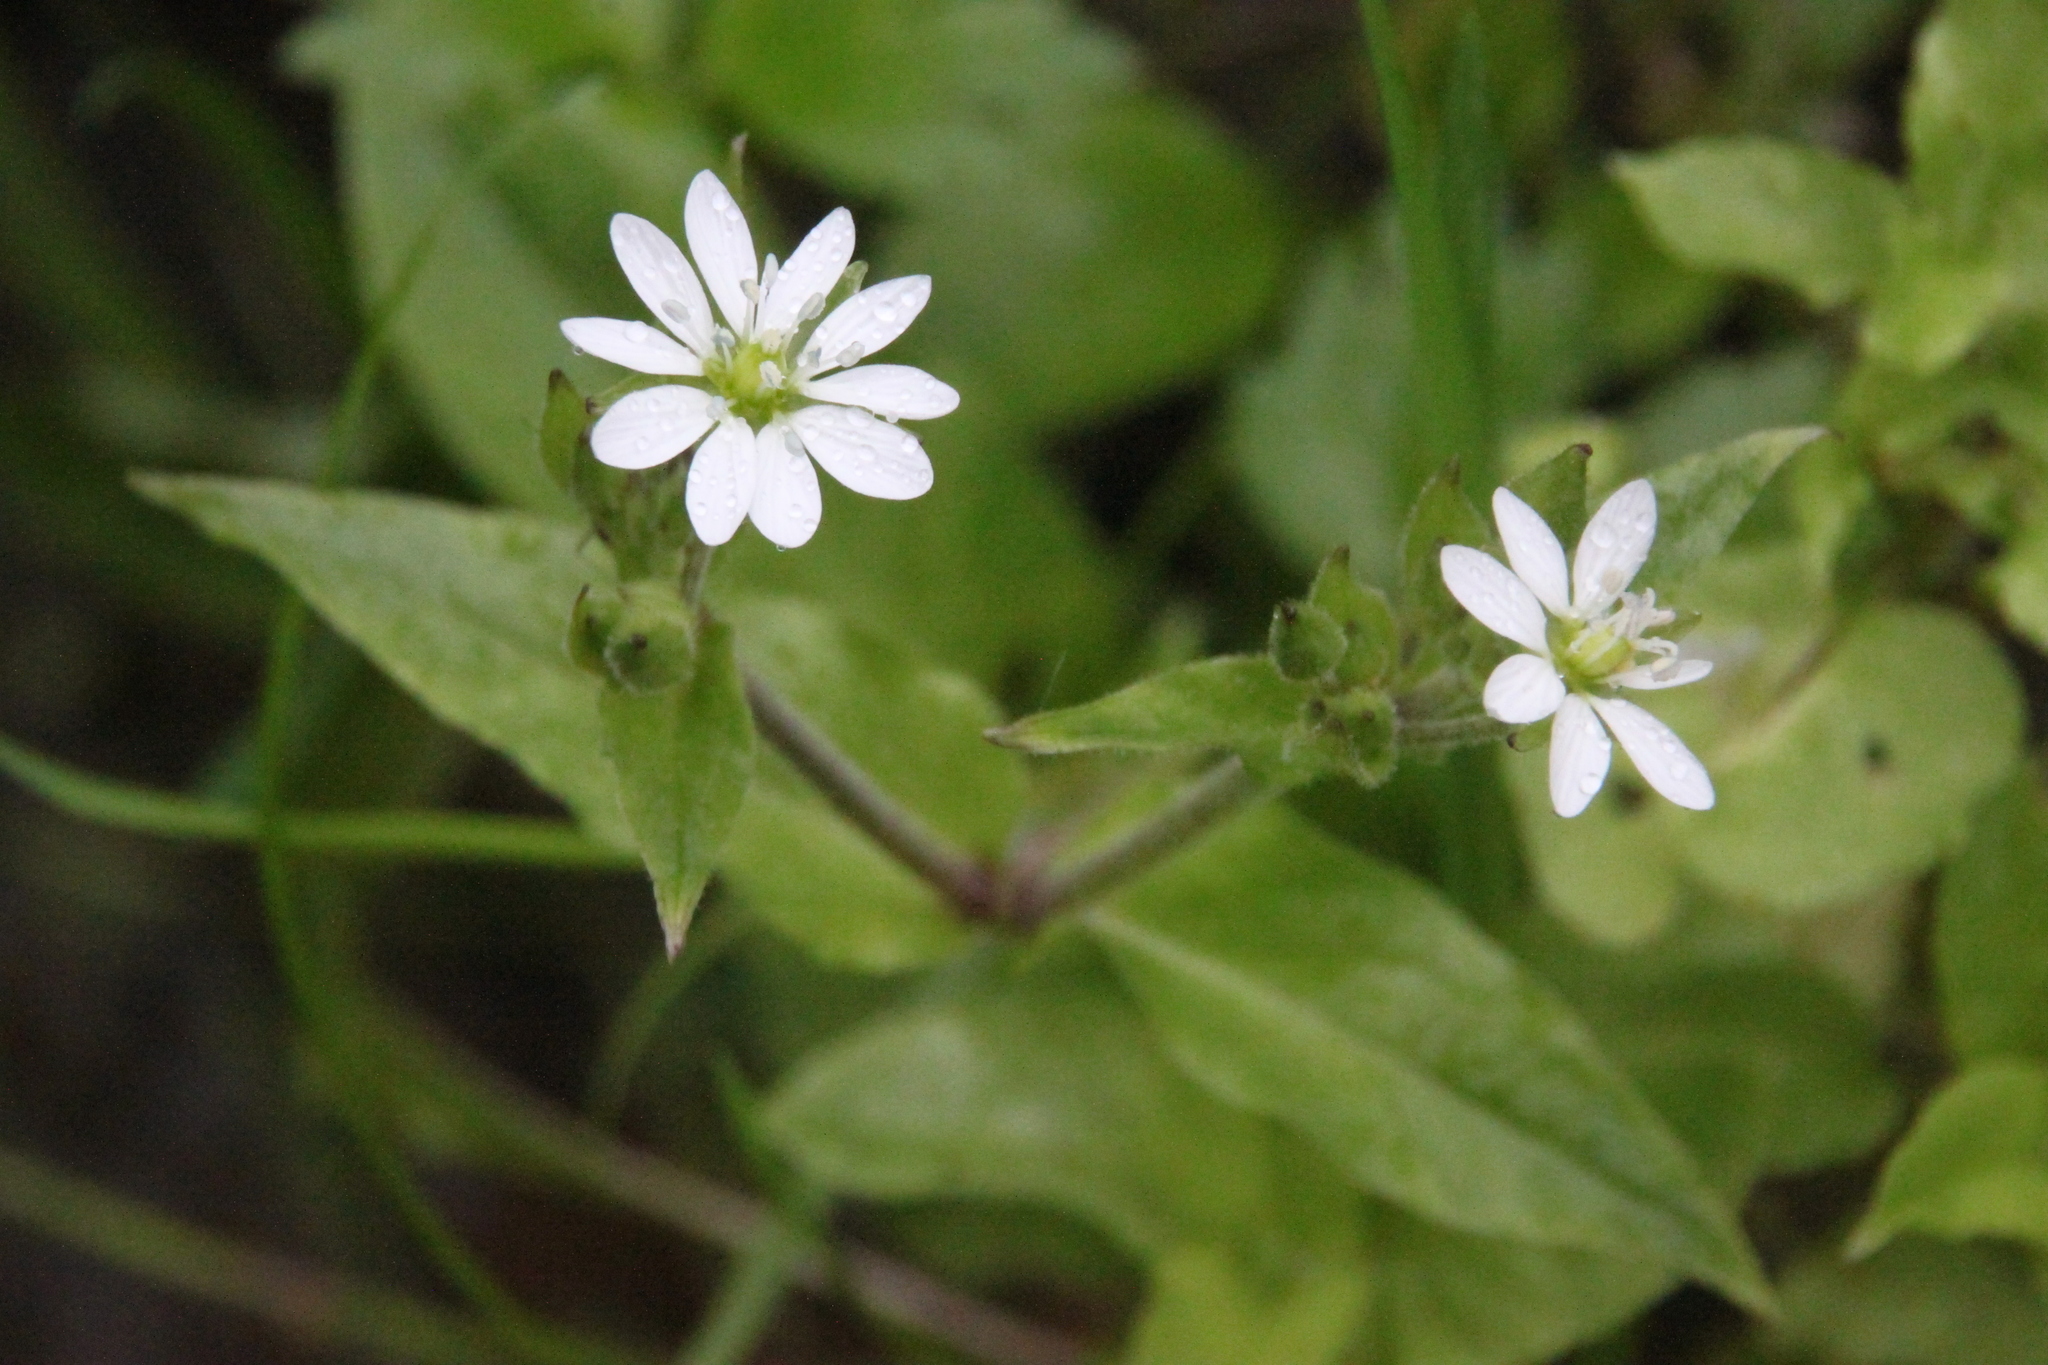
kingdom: Plantae
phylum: Tracheophyta
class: Magnoliopsida
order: Caryophyllales
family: Caryophyllaceae
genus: Stellaria
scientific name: Stellaria aquatica
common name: Water chickweed
